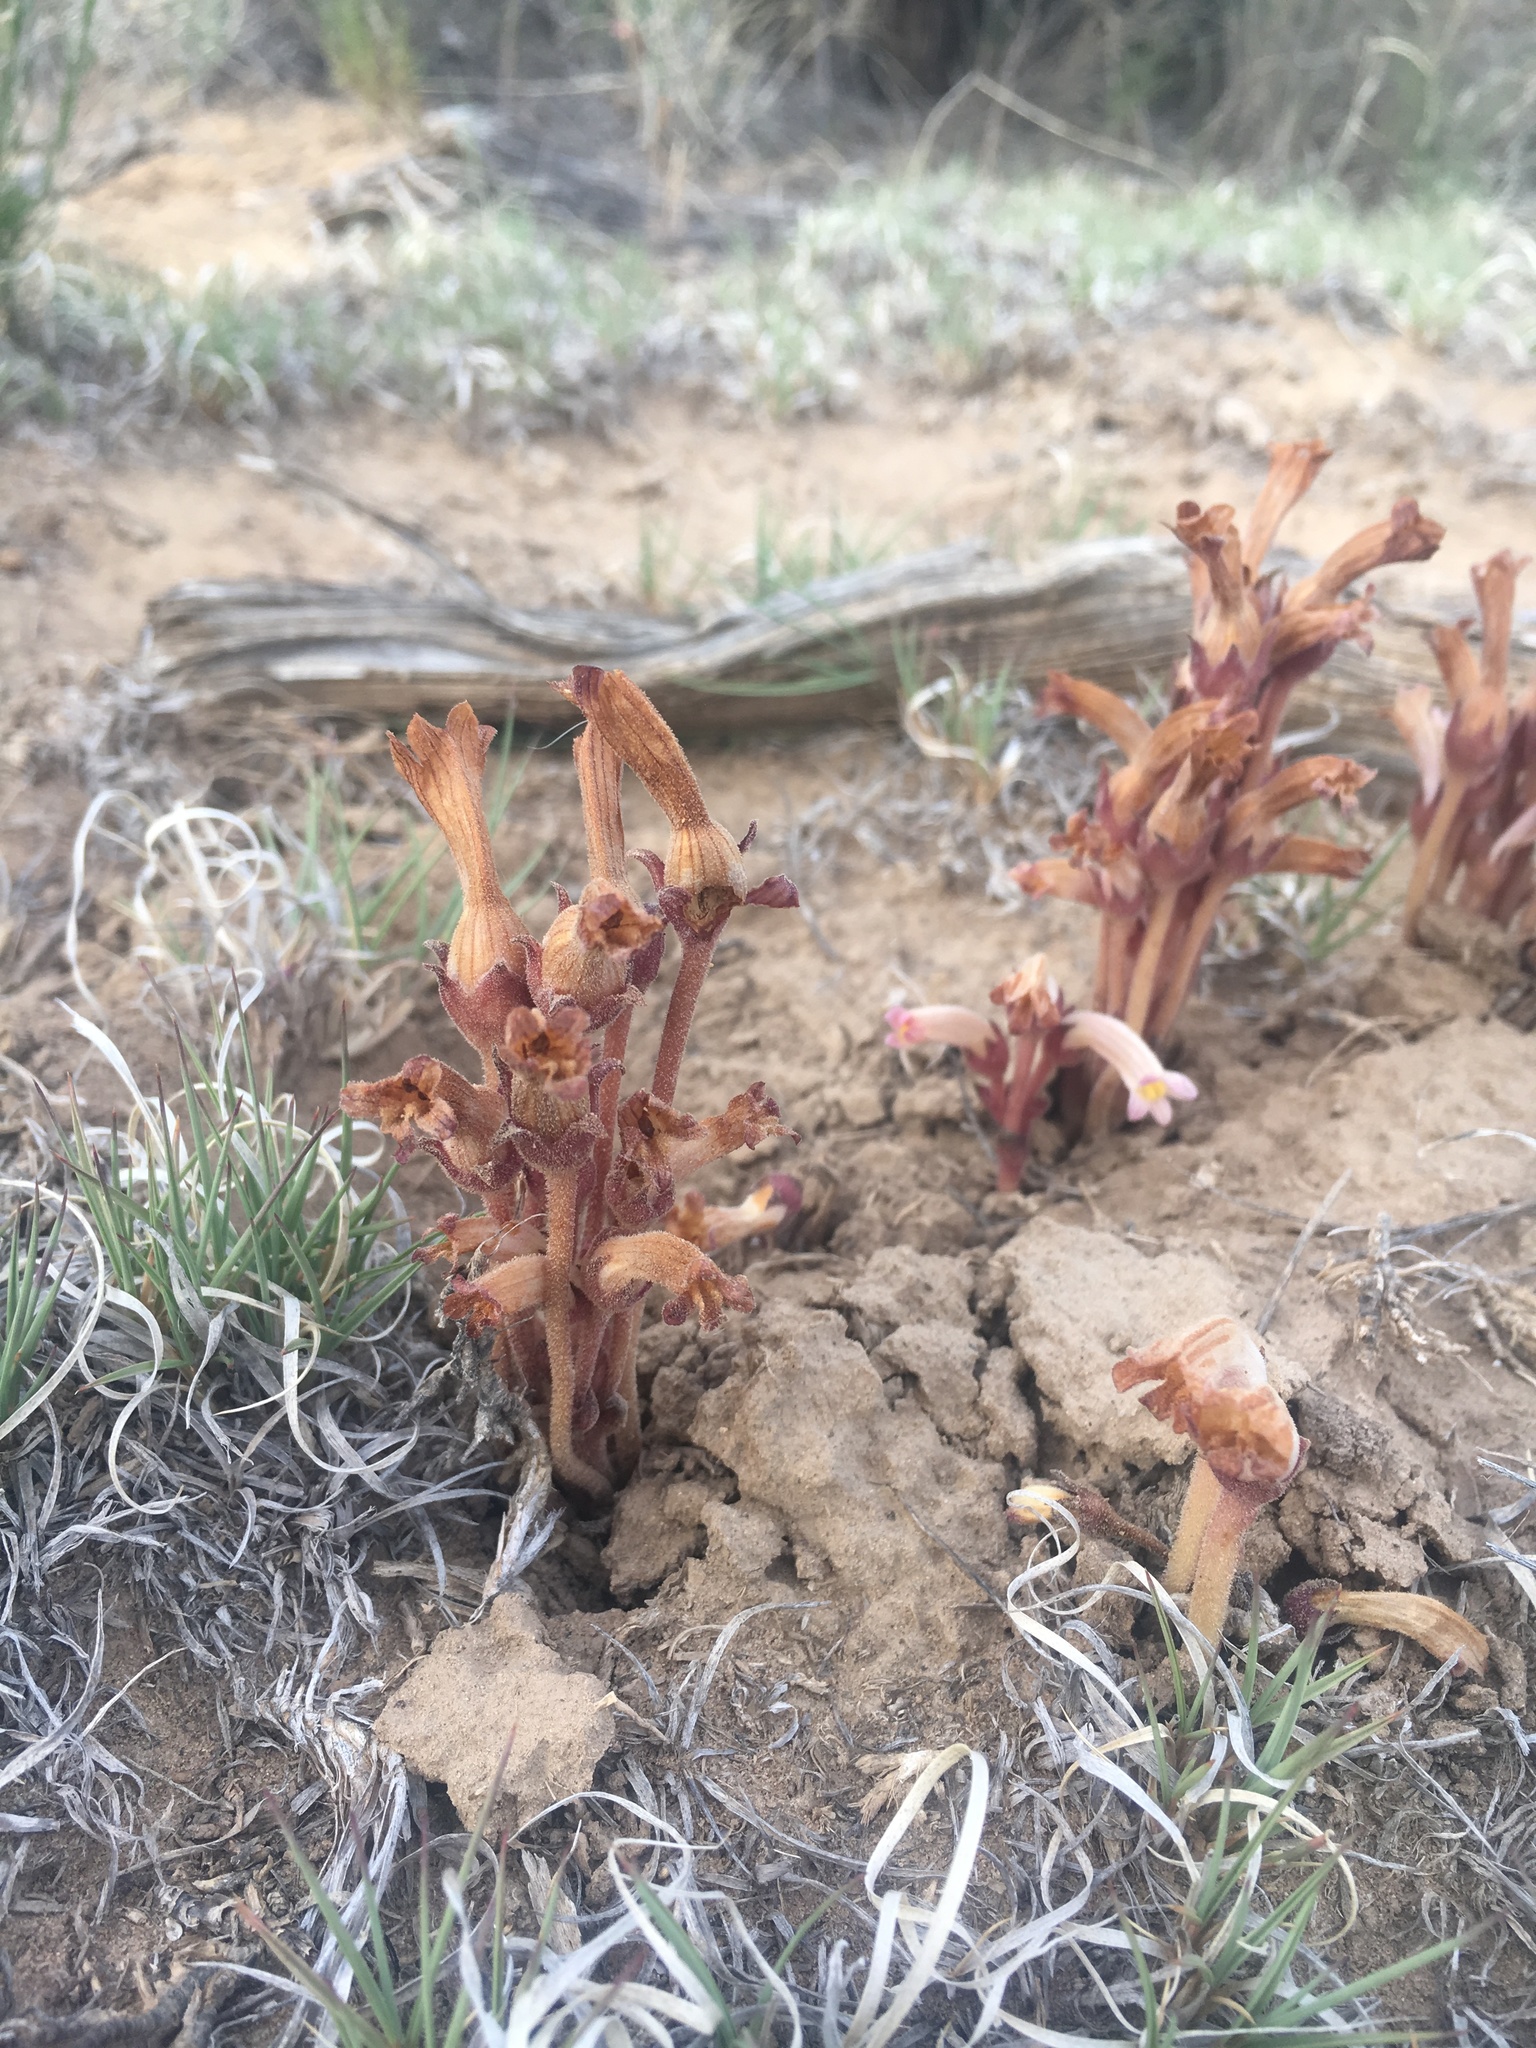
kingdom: Plantae
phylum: Tracheophyta
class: Magnoliopsida
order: Lamiales
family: Orobanchaceae
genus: Aphyllon
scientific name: Aphyllon fasciculatum
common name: Clustered broomrape
